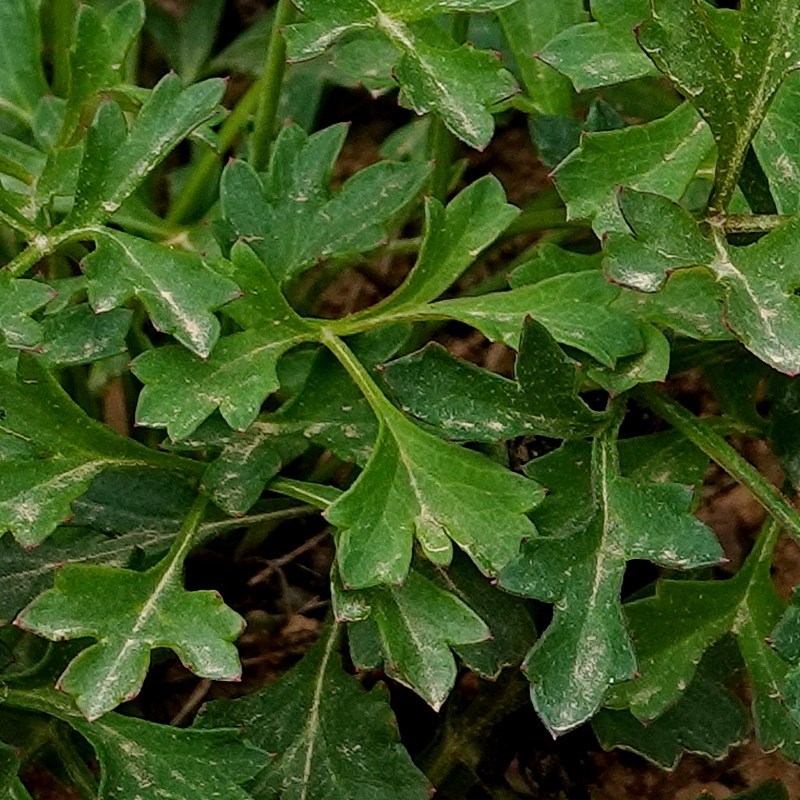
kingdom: Plantae
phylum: Tracheophyta
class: Magnoliopsida
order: Apiales
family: Apiaceae
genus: Xanthosia
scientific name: Xanthosia atkinsoniana
